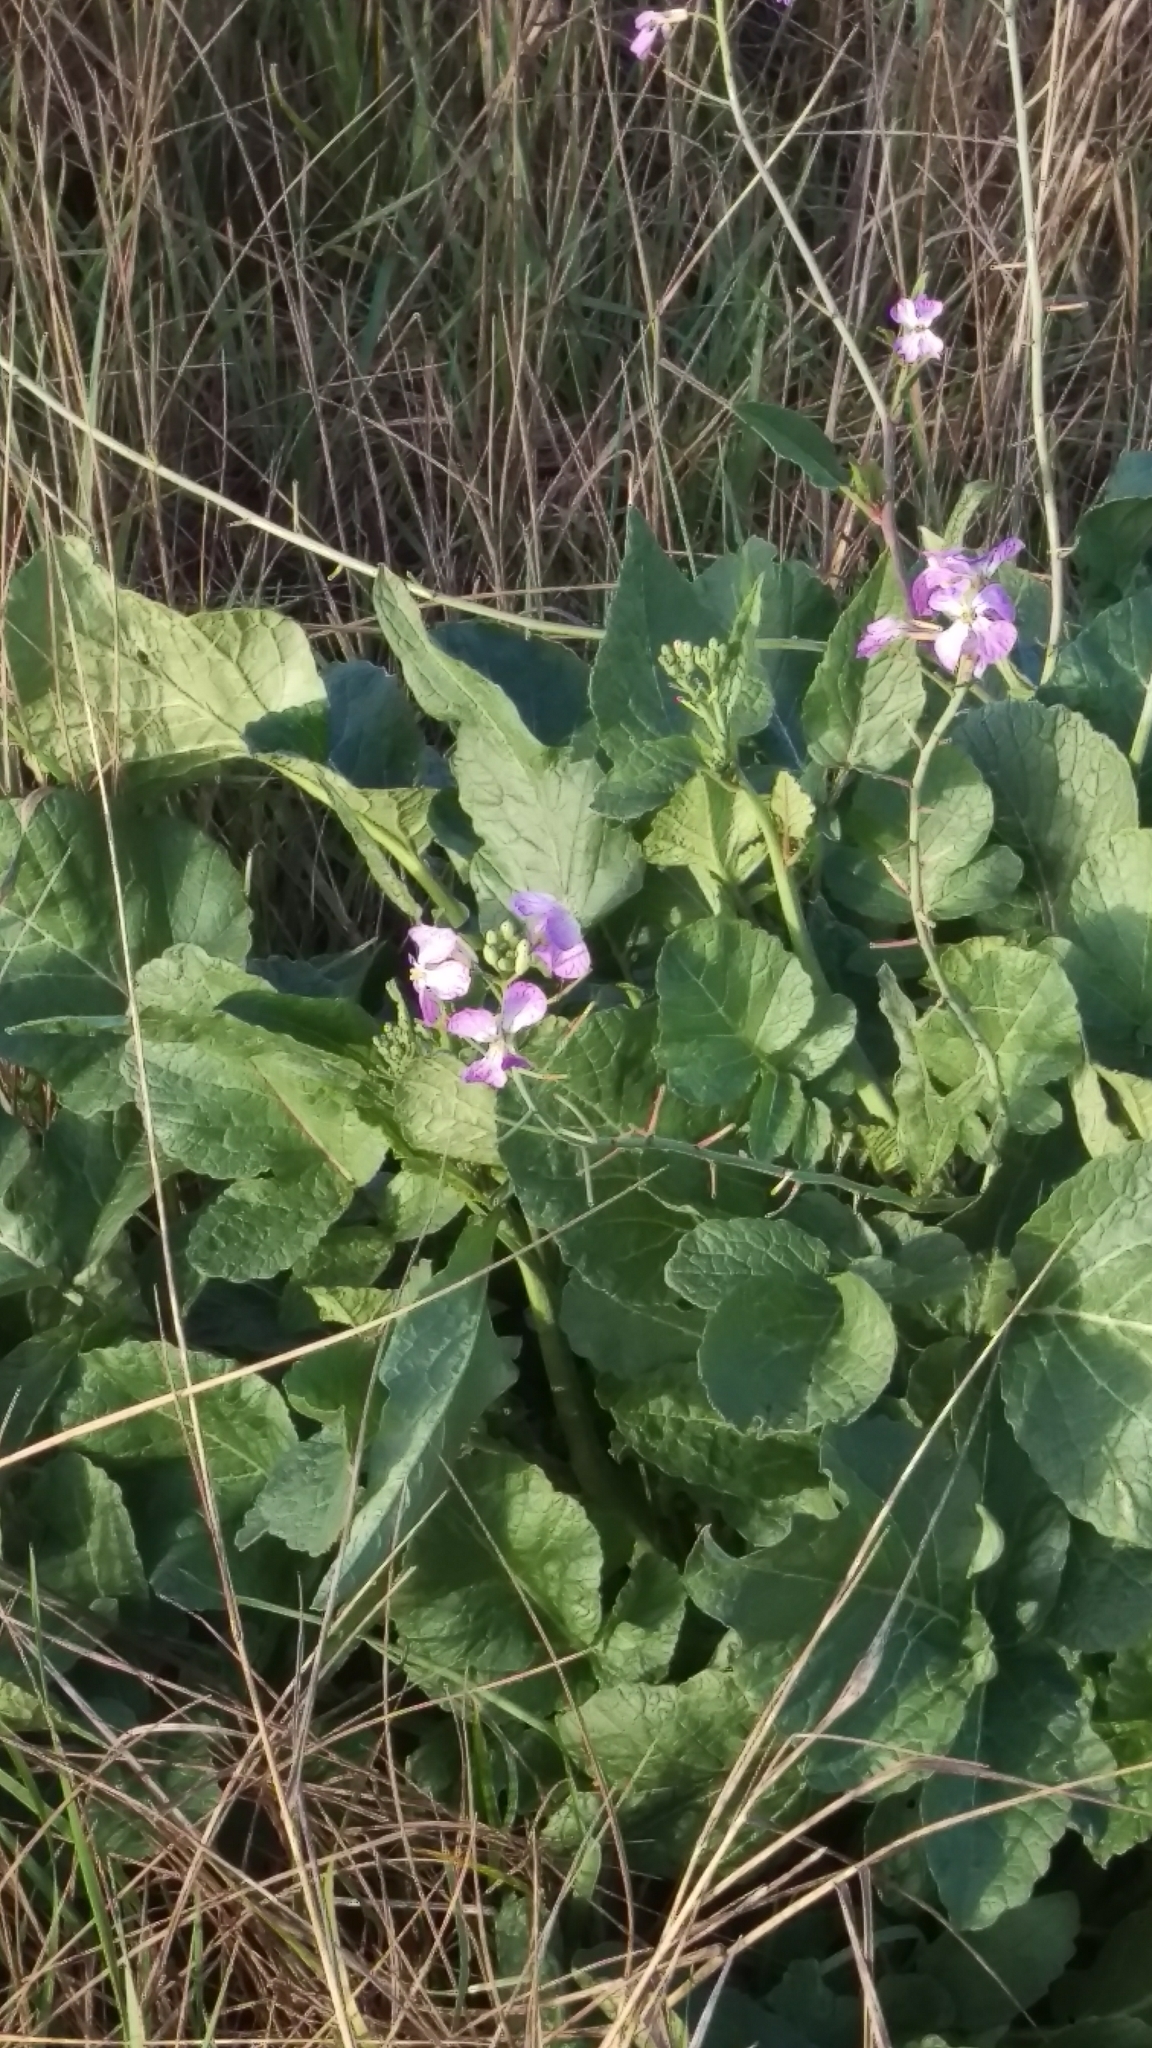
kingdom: Plantae
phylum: Tracheophyta
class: Magnoliopsida
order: Brassicales
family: Brassicaceae
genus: Raphanus
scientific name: Raphanus sativus
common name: Cultivated radish
